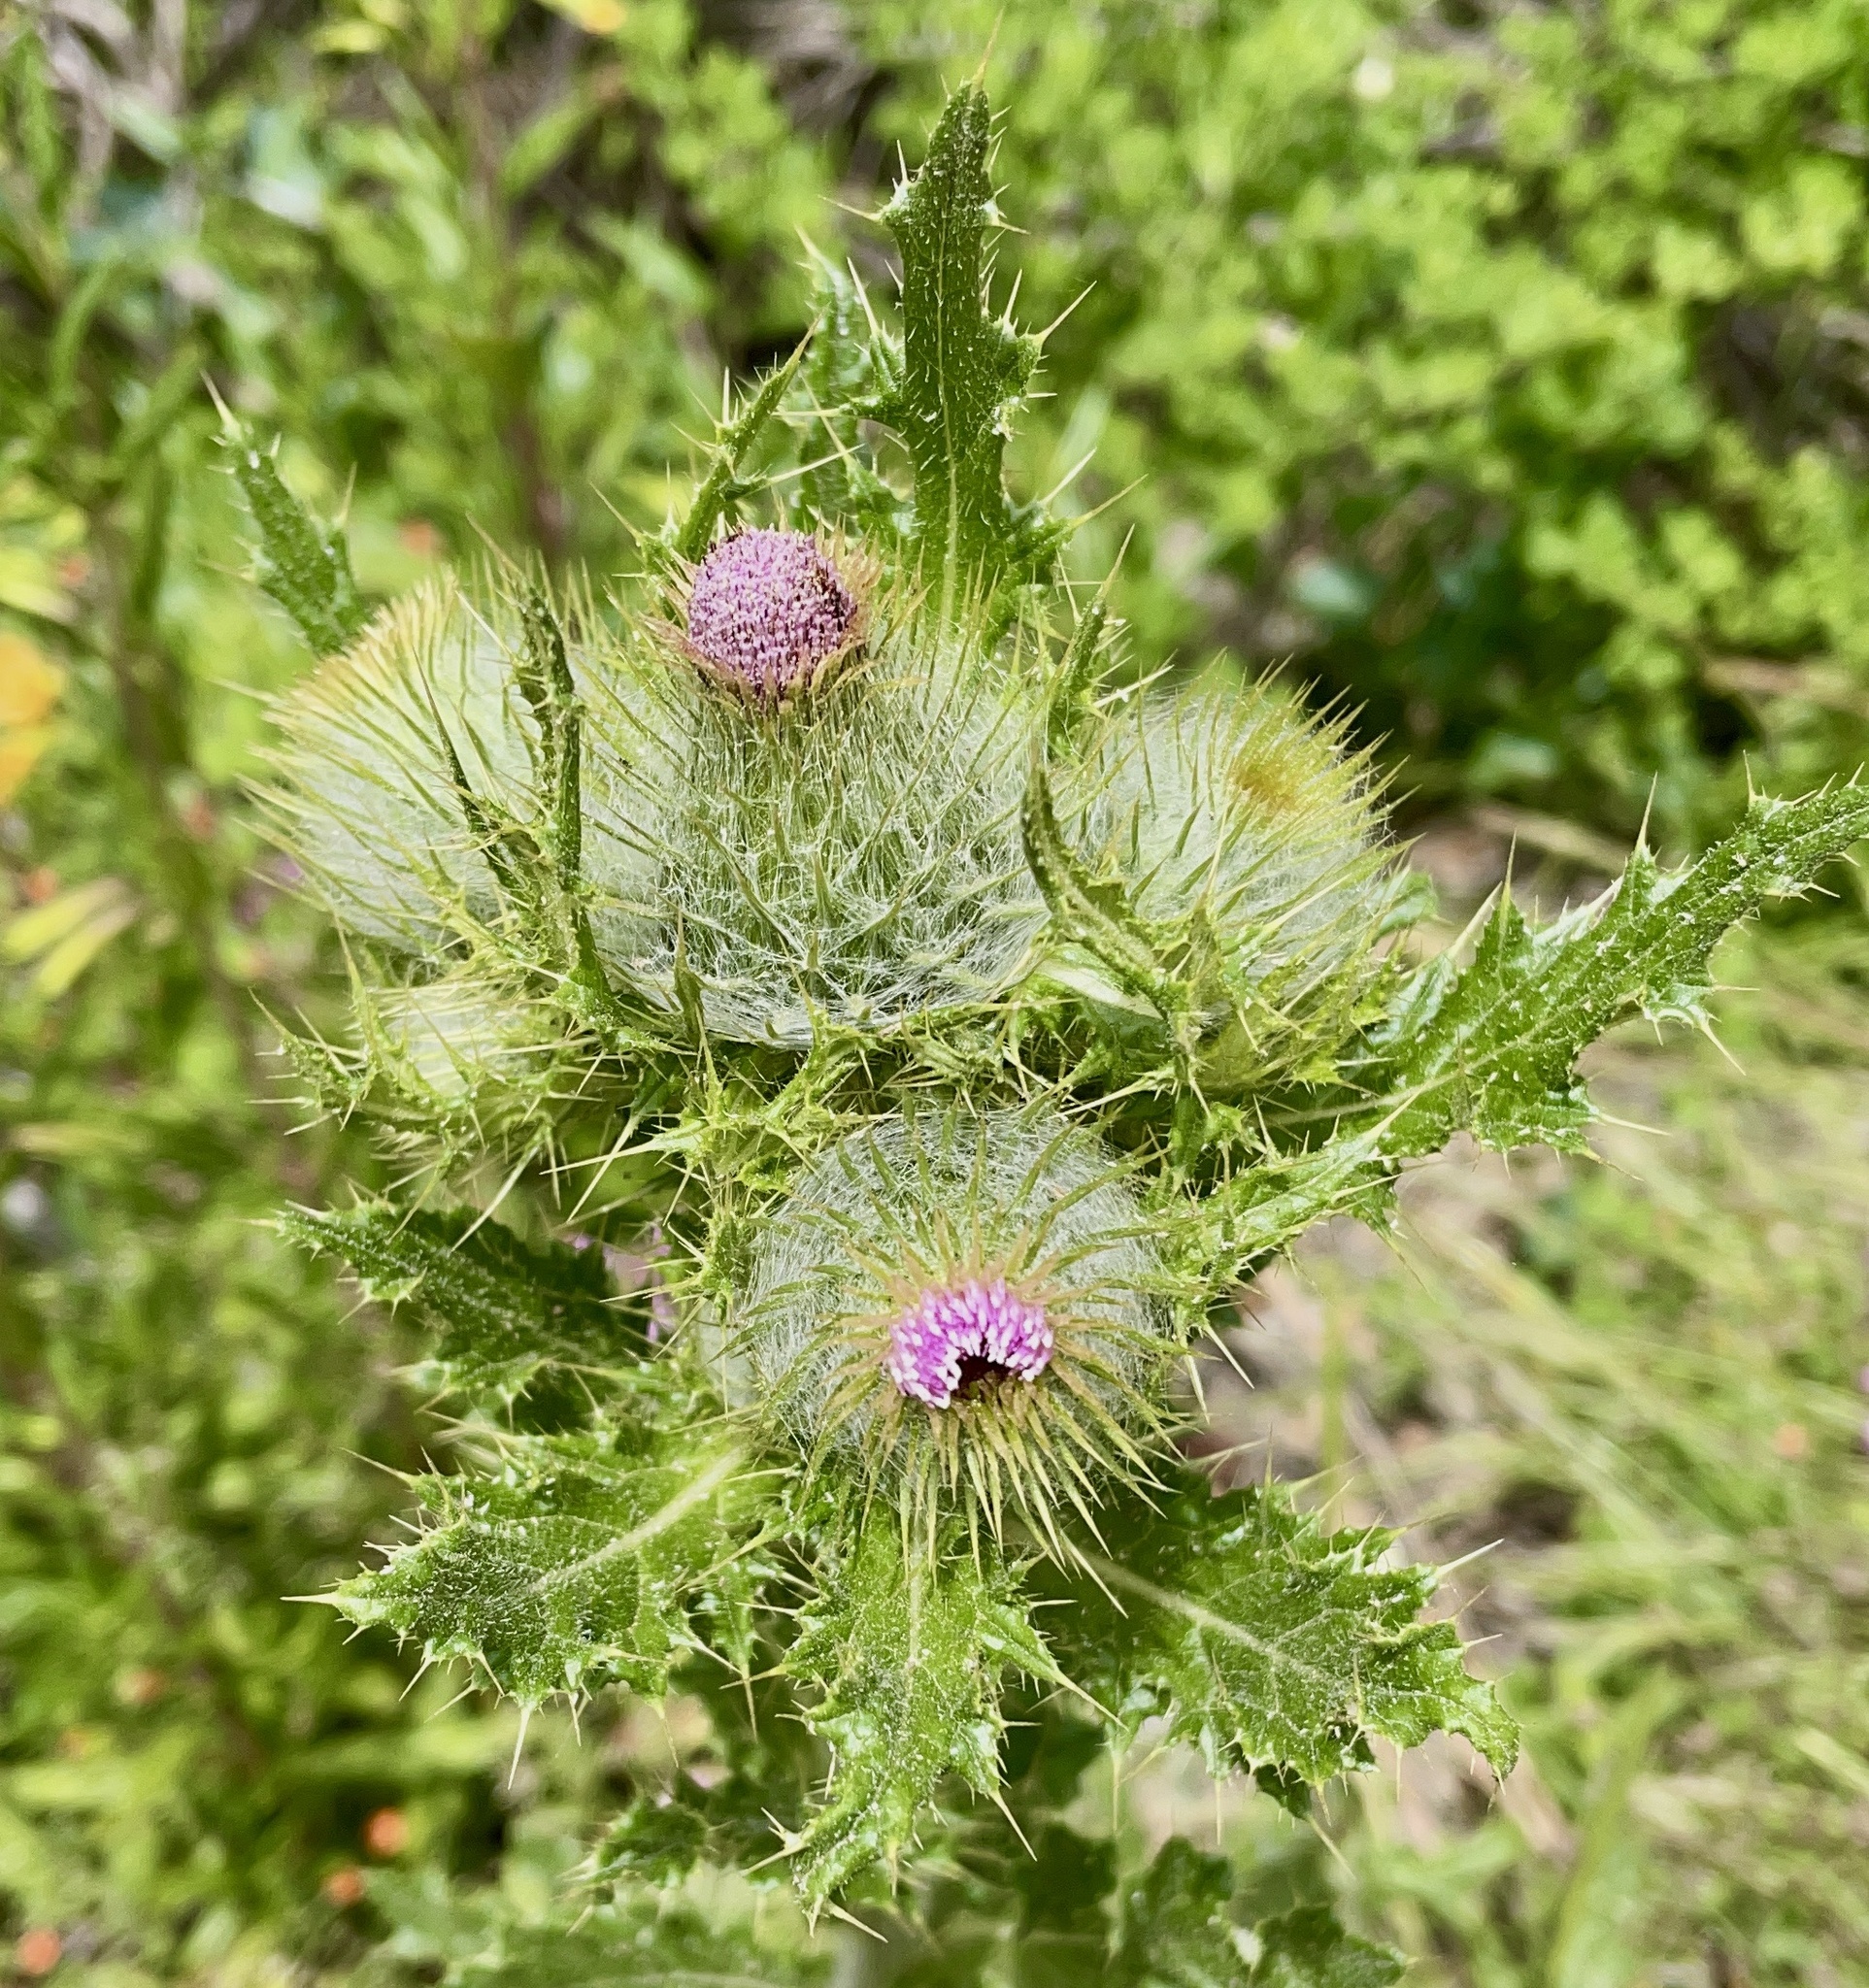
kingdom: Plantae
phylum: Tracheophyta
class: Magnoliopsida
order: Asterales
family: Asteraceae
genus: Cirsium
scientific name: Cirsium brevistylum
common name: Indian thistle
